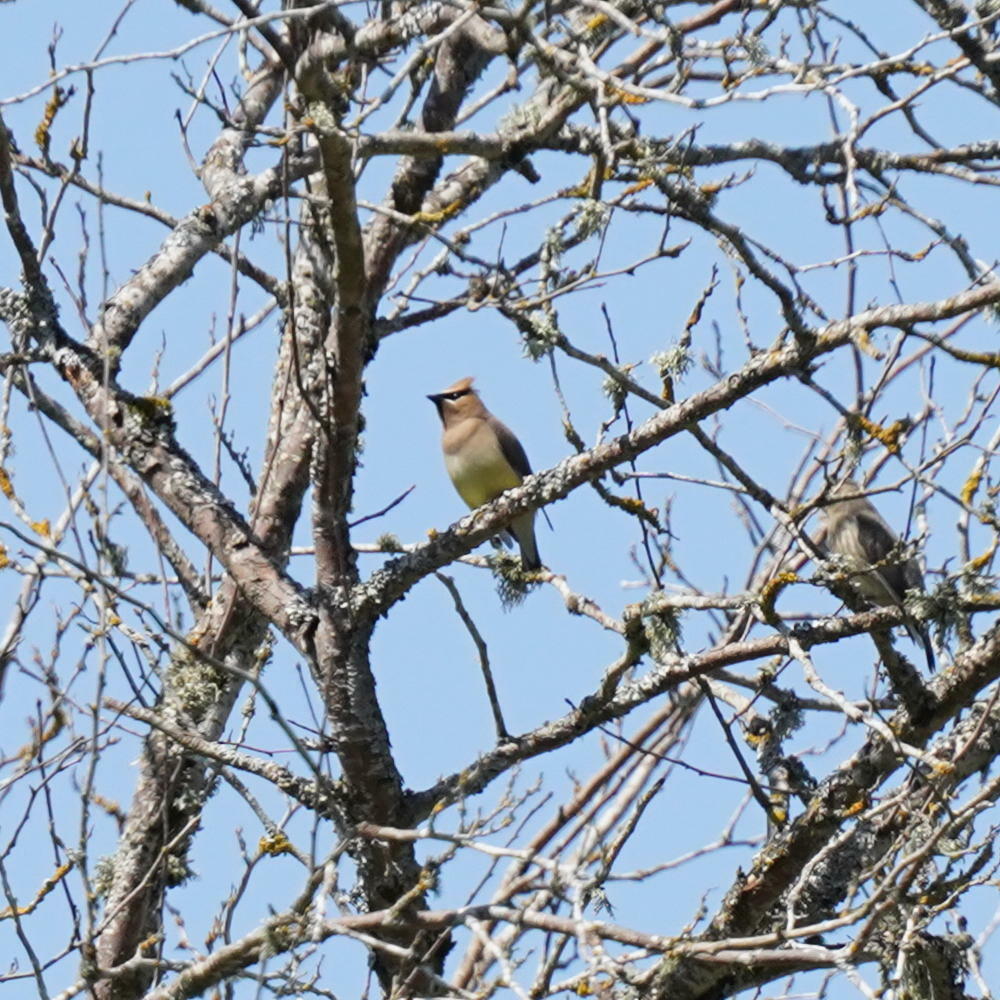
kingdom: Animalia
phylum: Chordata
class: Aves
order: Passeriformes
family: Bombycillidae
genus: Bombycilla
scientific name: Bombycilla cedrorum
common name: Cedar waxwing
